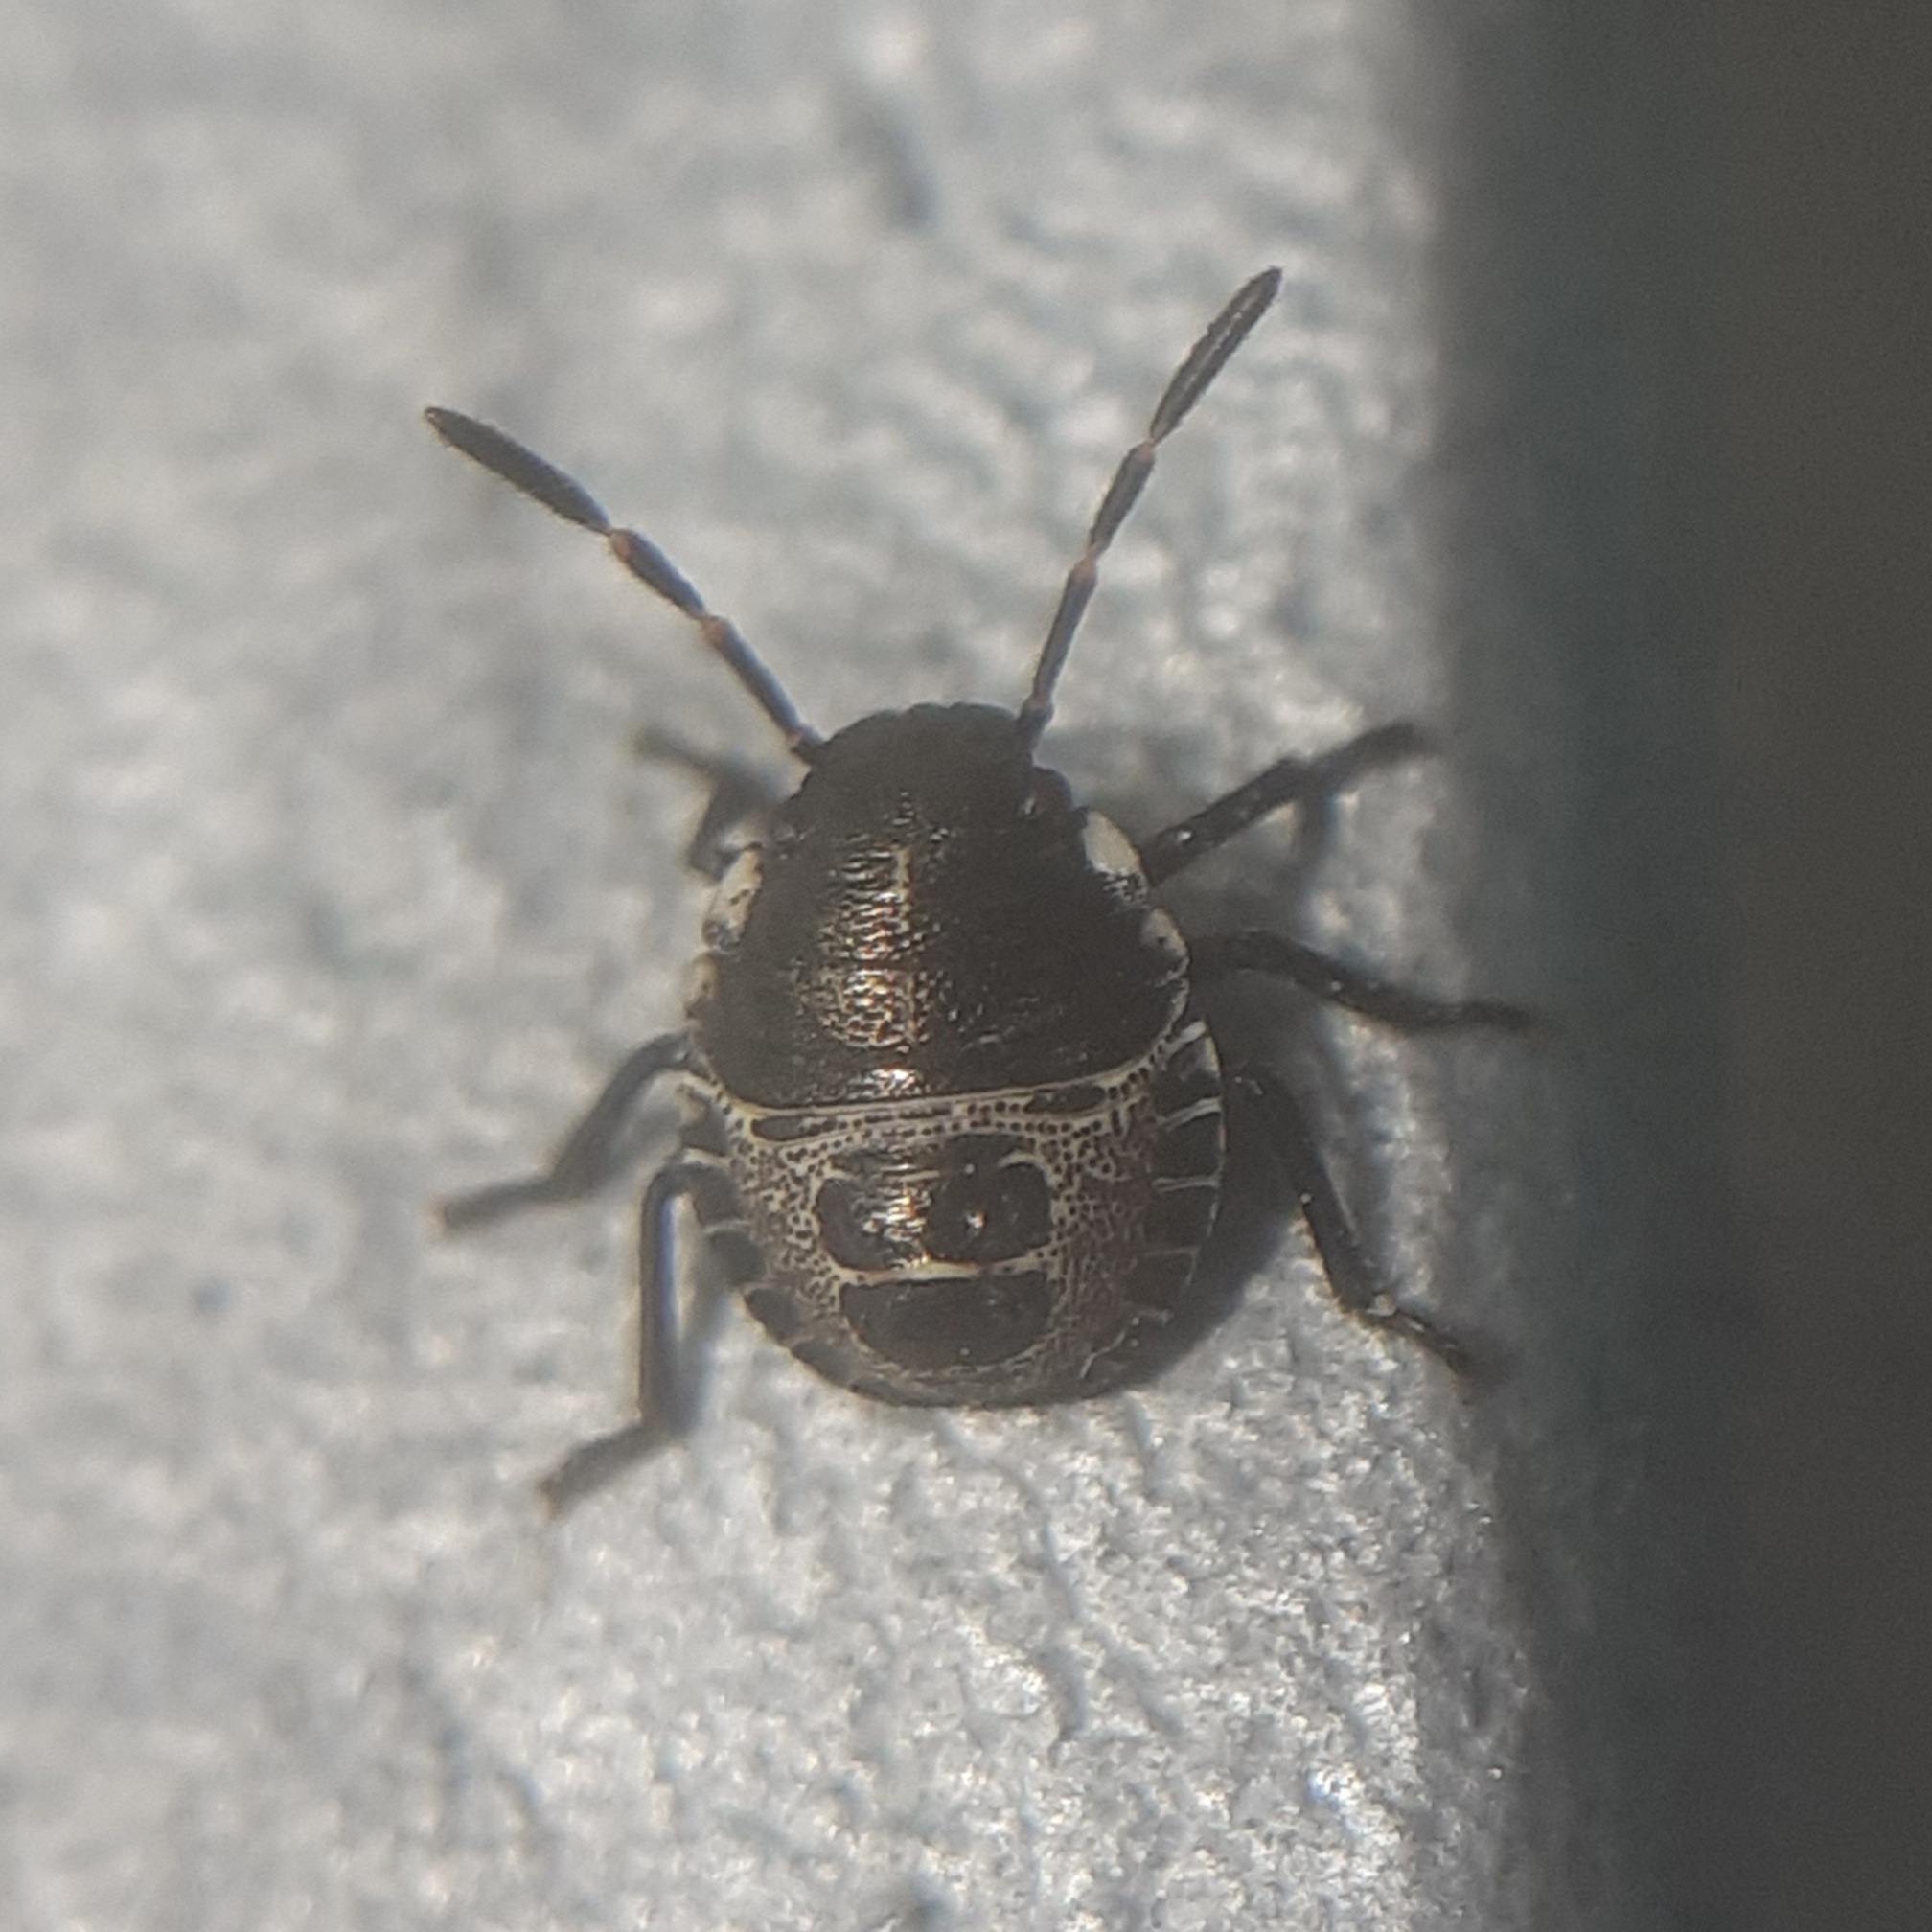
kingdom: Animalia
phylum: Arthropoda
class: Insecta
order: Hemiptera
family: Pentatomidae
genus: Rhaphigaster
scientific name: Rhaphigaster nebulosa
